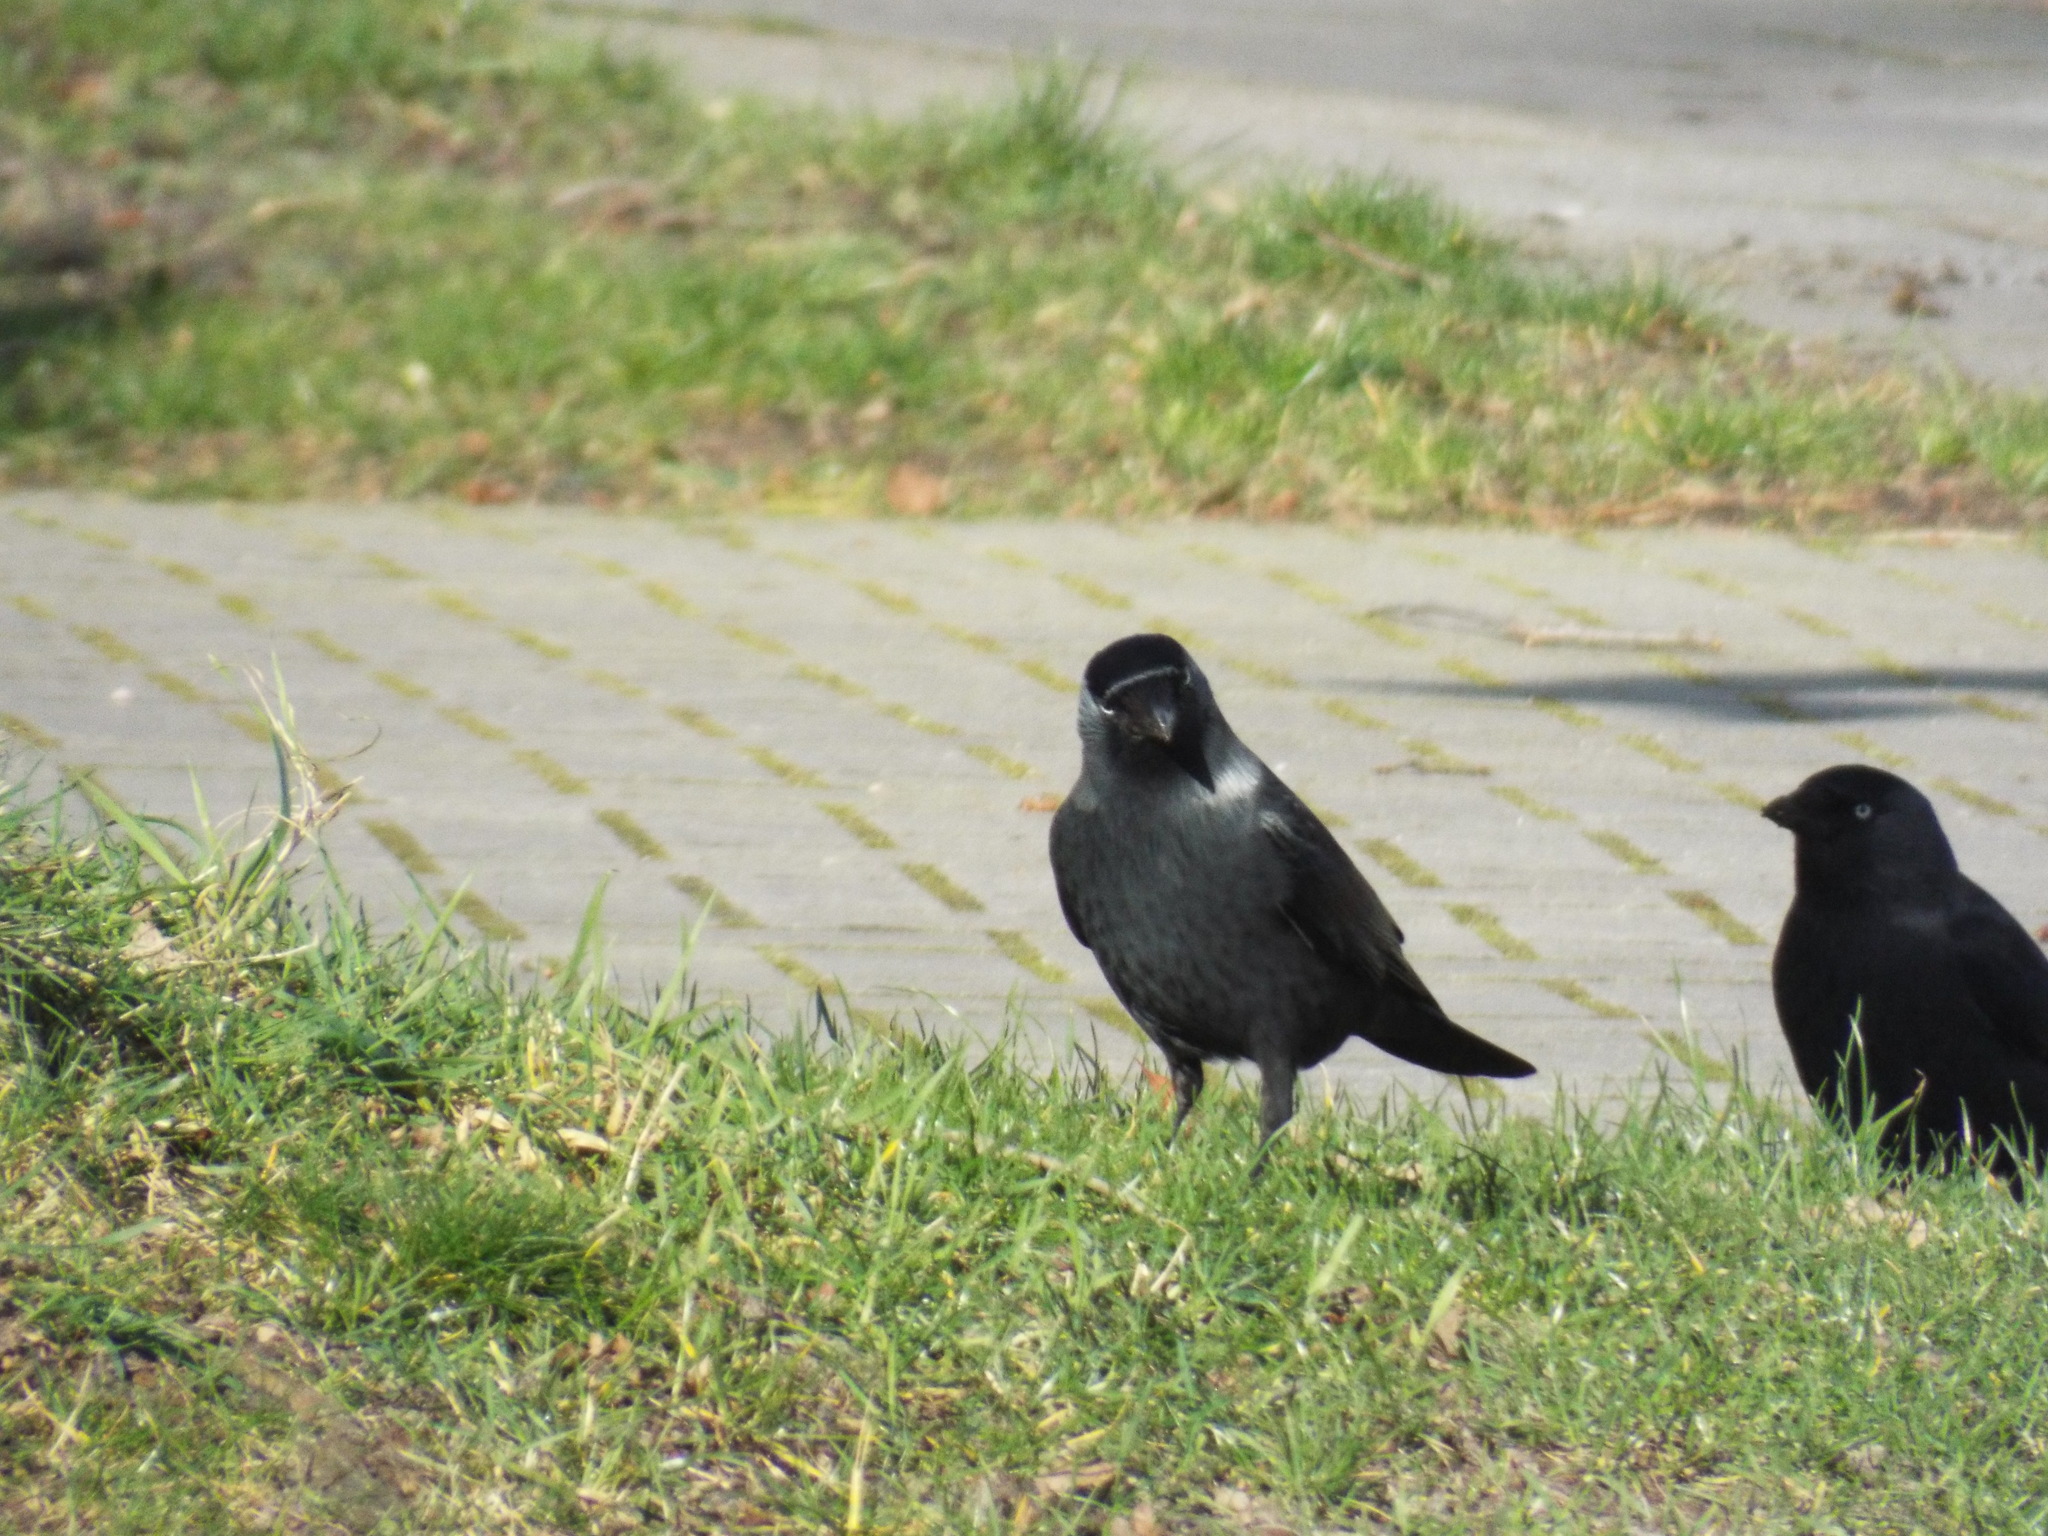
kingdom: Animalia
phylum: Chordata
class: Aves
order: Passeriformes
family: Corvidae
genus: Coloeus
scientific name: Coloeus monedula
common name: Western jackdaw
